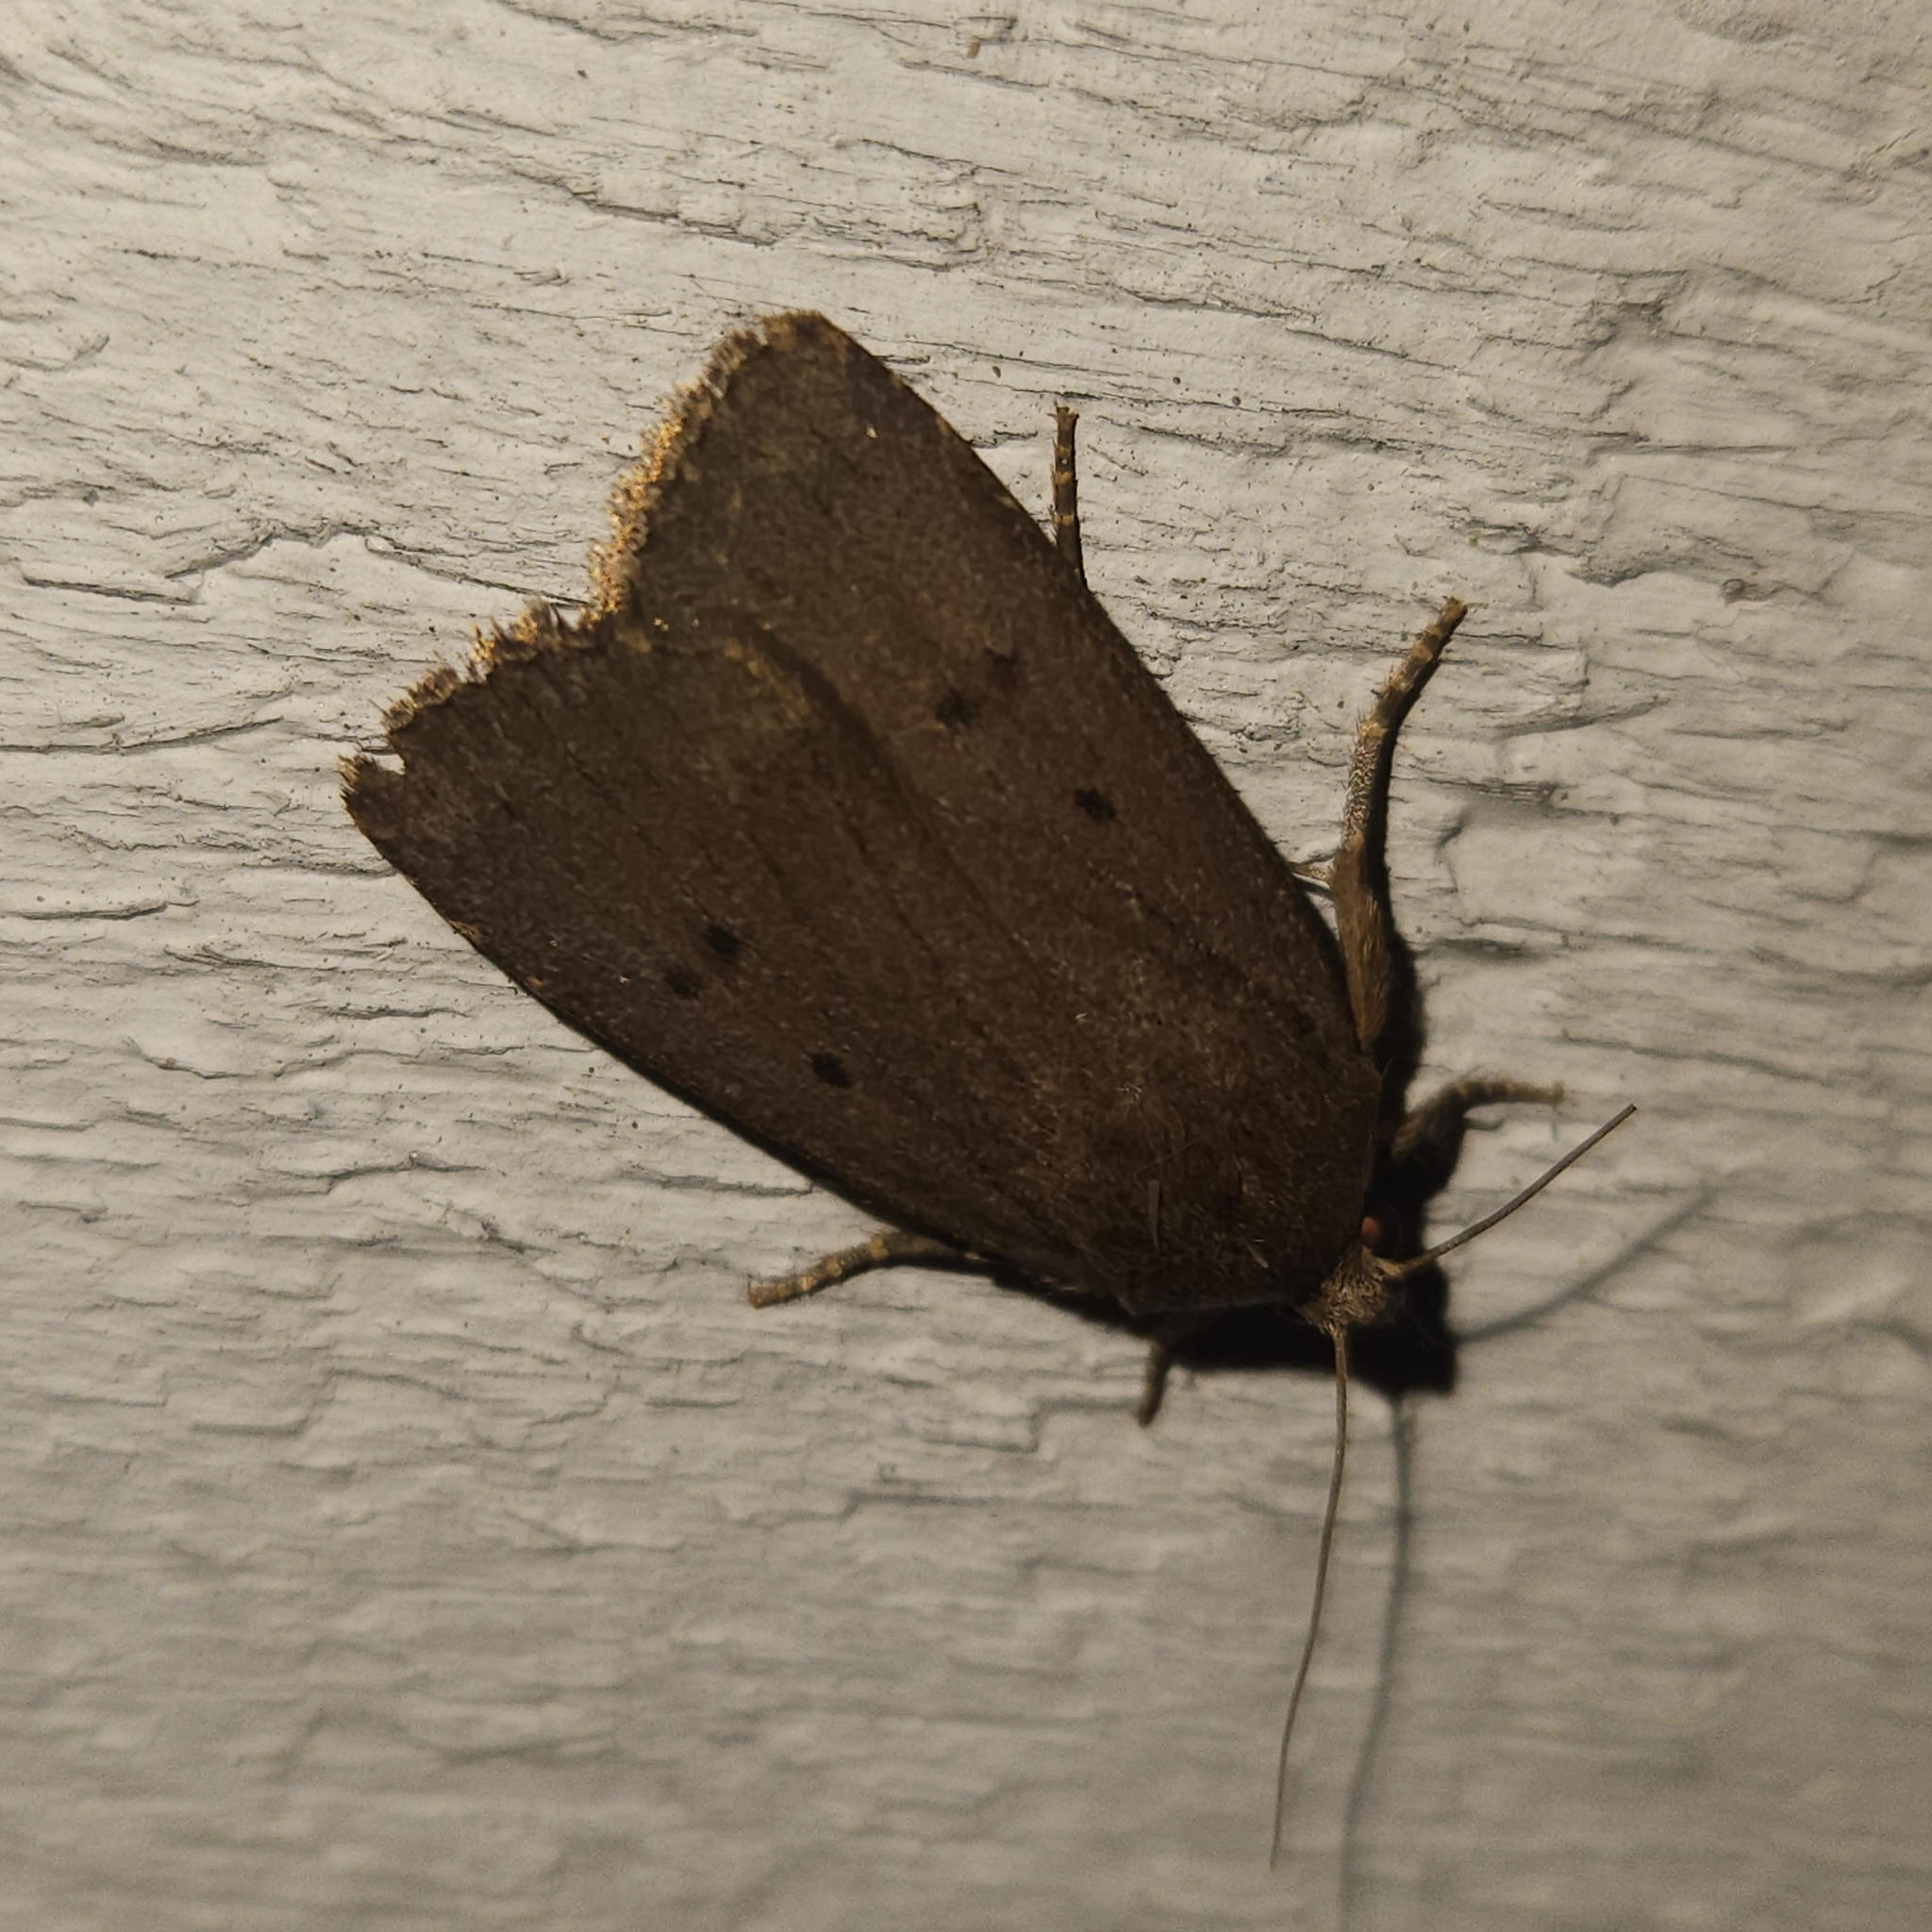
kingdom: Animalia
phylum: Arthropoda
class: Insecta
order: Lepidoptera
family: Noctuidae
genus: Amphipyra
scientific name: Amphipyra tragopoginis
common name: Mouse moth
